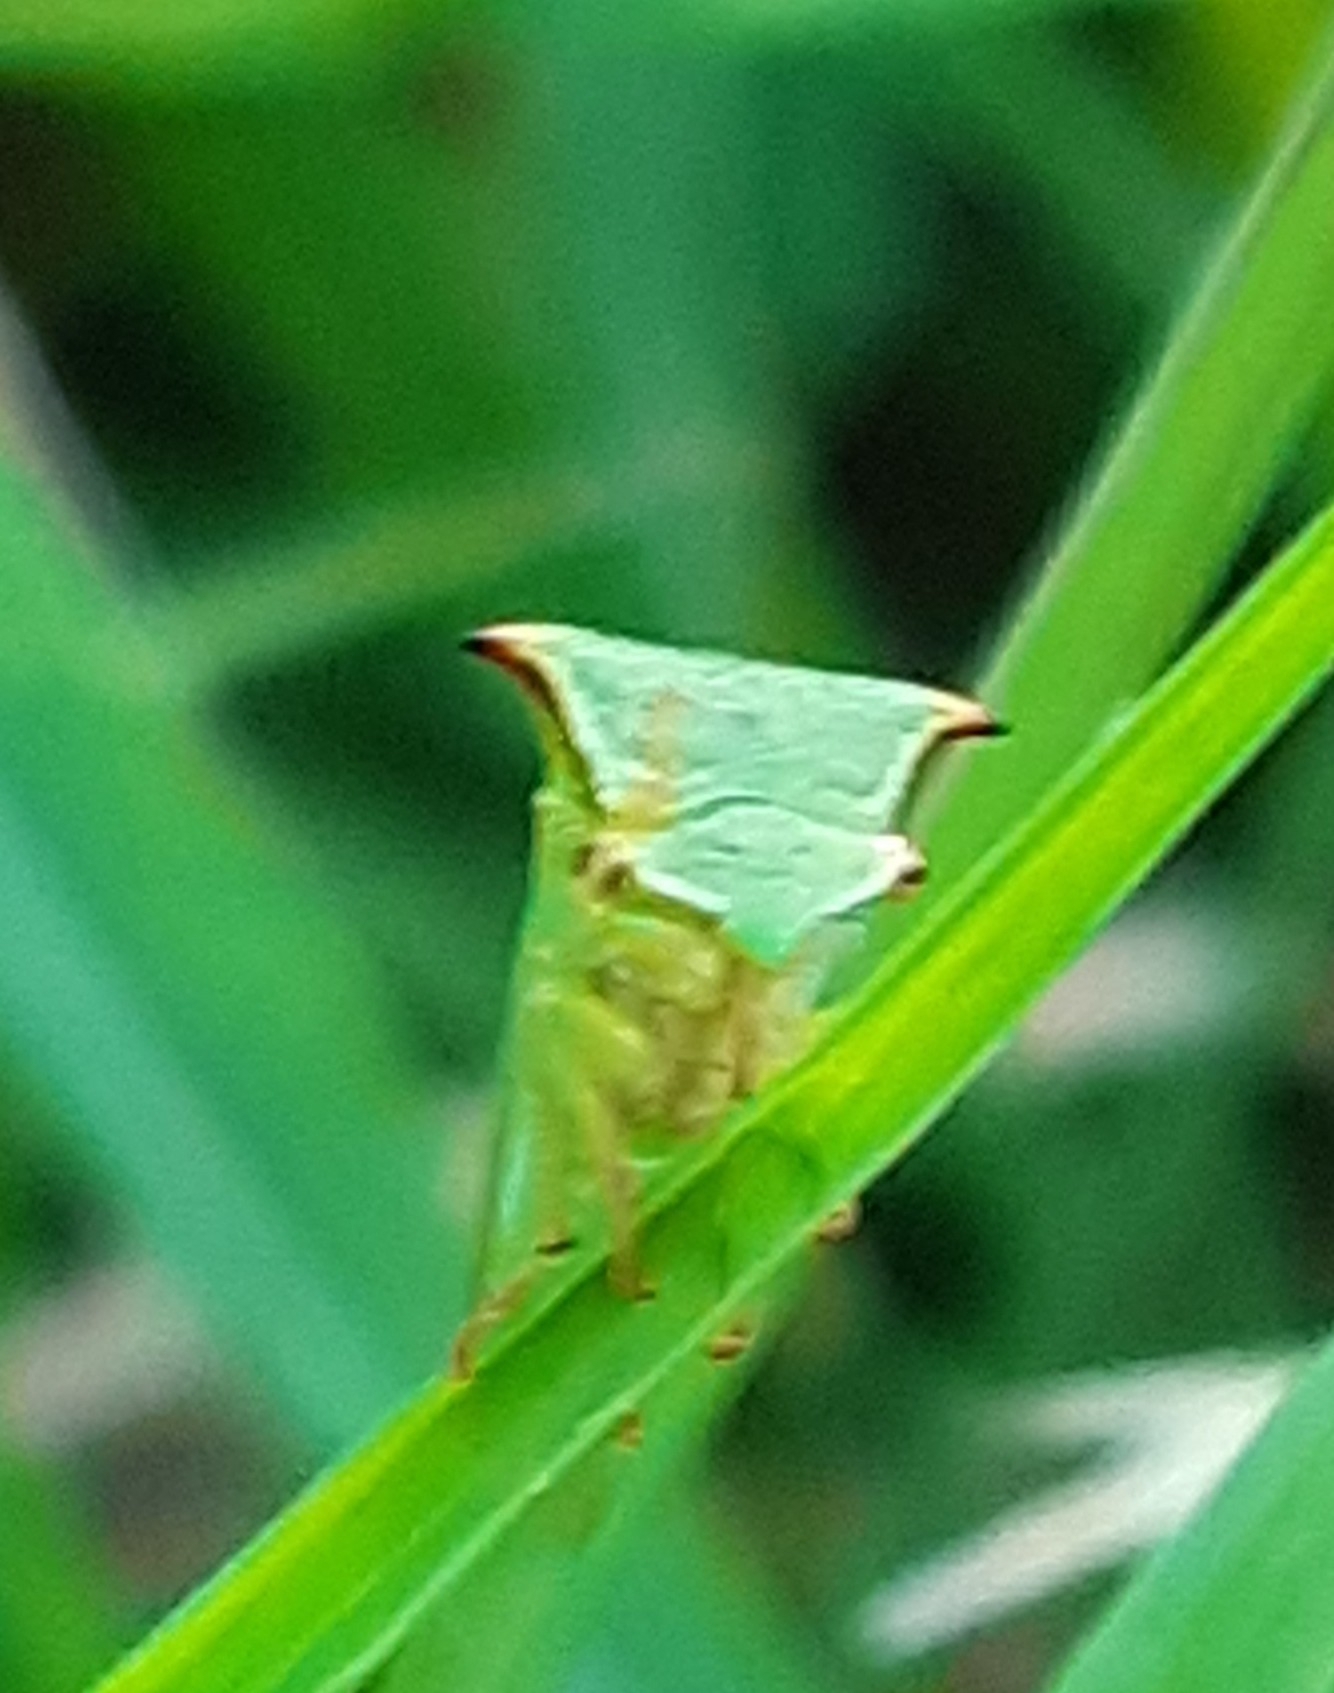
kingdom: Animalia
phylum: Arthropoda
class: Insecta
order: Hemiptera
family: Membracidae
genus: Stictocephala
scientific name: Stictocephala bisonia
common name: American buffalo treehopper
